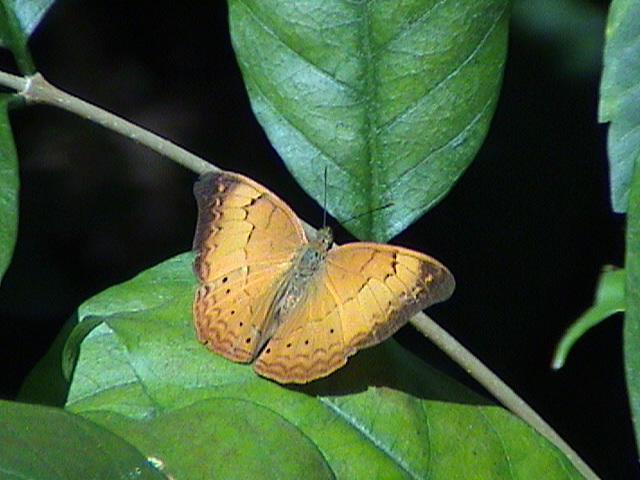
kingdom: Animalia
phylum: Arthropoda
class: Insecta
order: Lepidoptera
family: Nymphalidae
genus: Cirrochroa
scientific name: Cirrochroa thais
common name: Tamil yeoman
